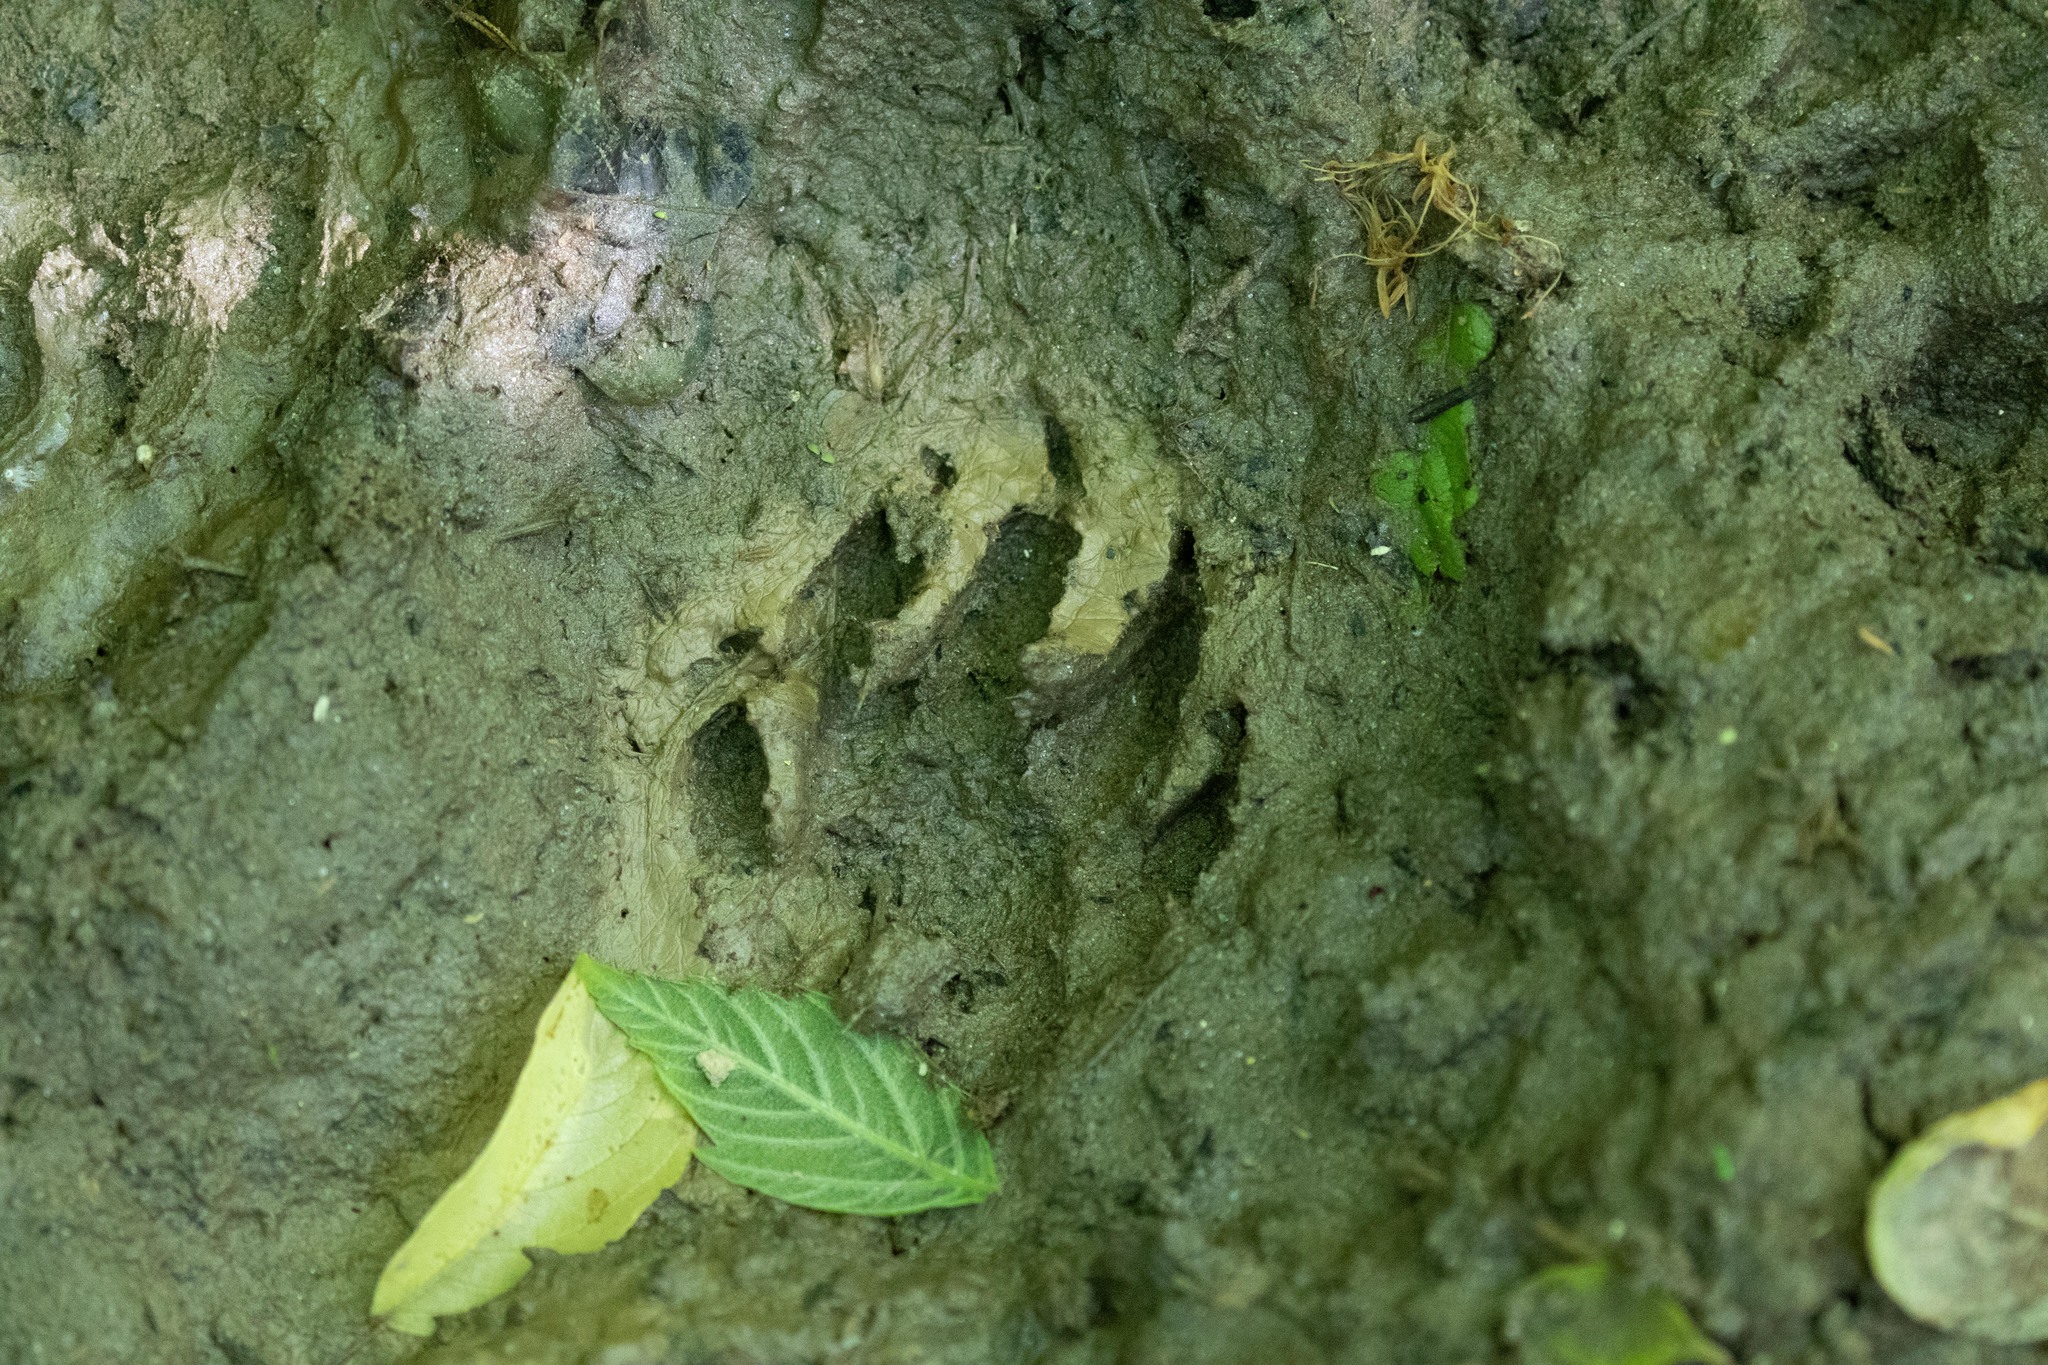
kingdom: Animalia
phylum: Chordata
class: Mammalia
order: Carnivora
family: Procyonidae
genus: Procyon
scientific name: Procyon lotor
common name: Raccoon
